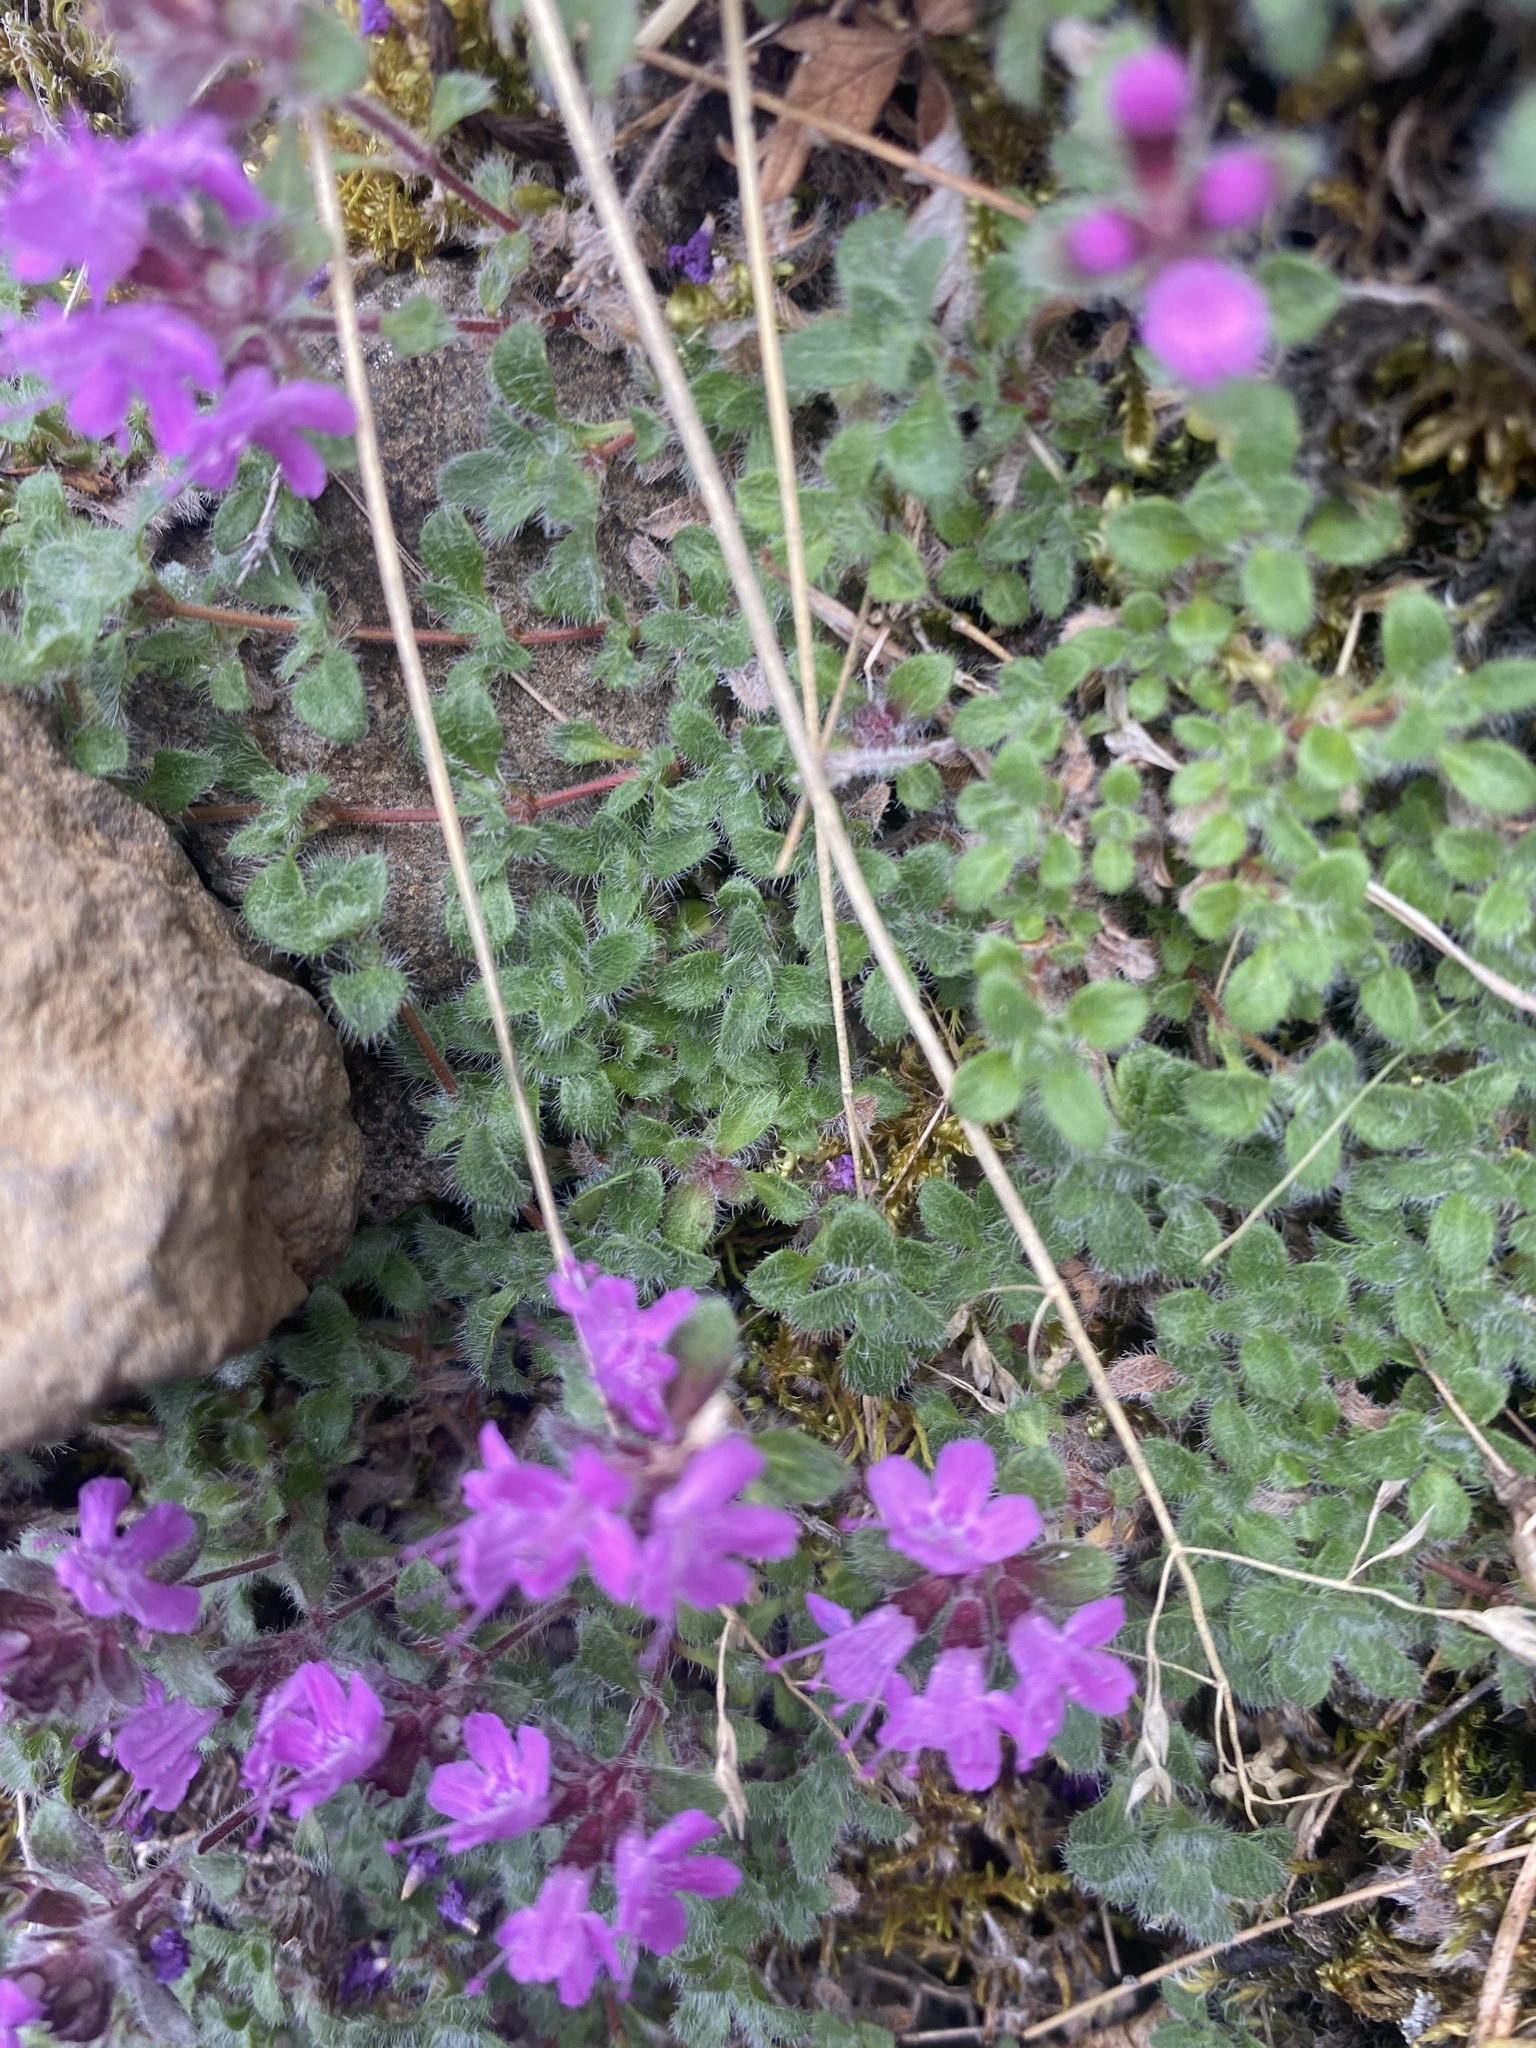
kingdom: Plantae
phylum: Tracheophyta
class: Magnoliopsida
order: Lamiales
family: Lamiaceae
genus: Thymus
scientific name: Thymus extremus
